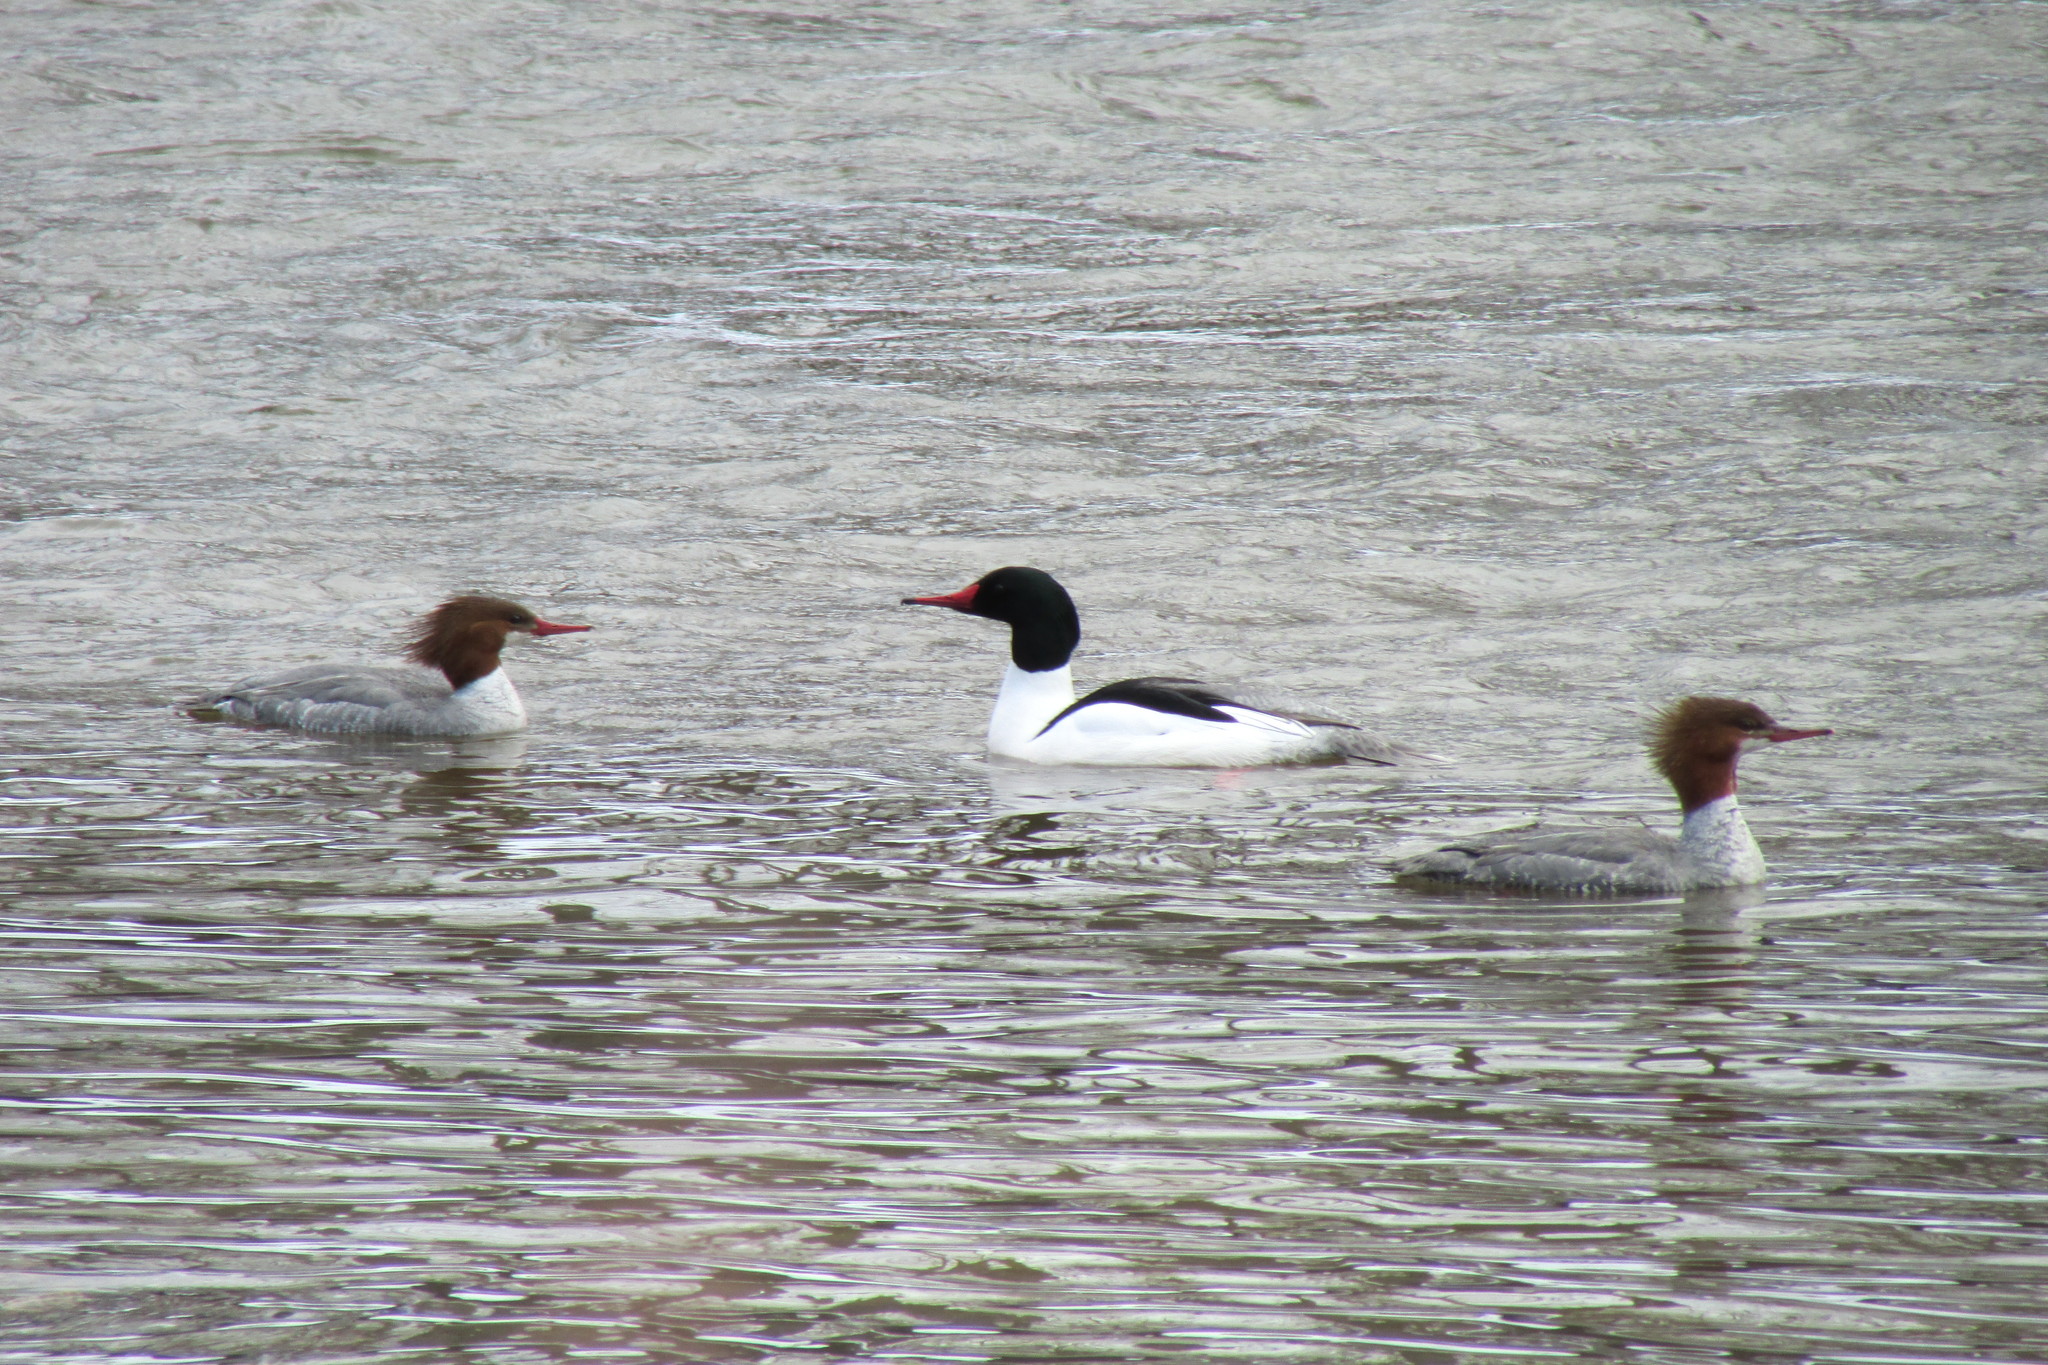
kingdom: Animalia
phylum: Chordata
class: Aves
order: Anseriformes
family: Anatidae
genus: Mergus
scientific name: Mergus merganser
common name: Common merganser
